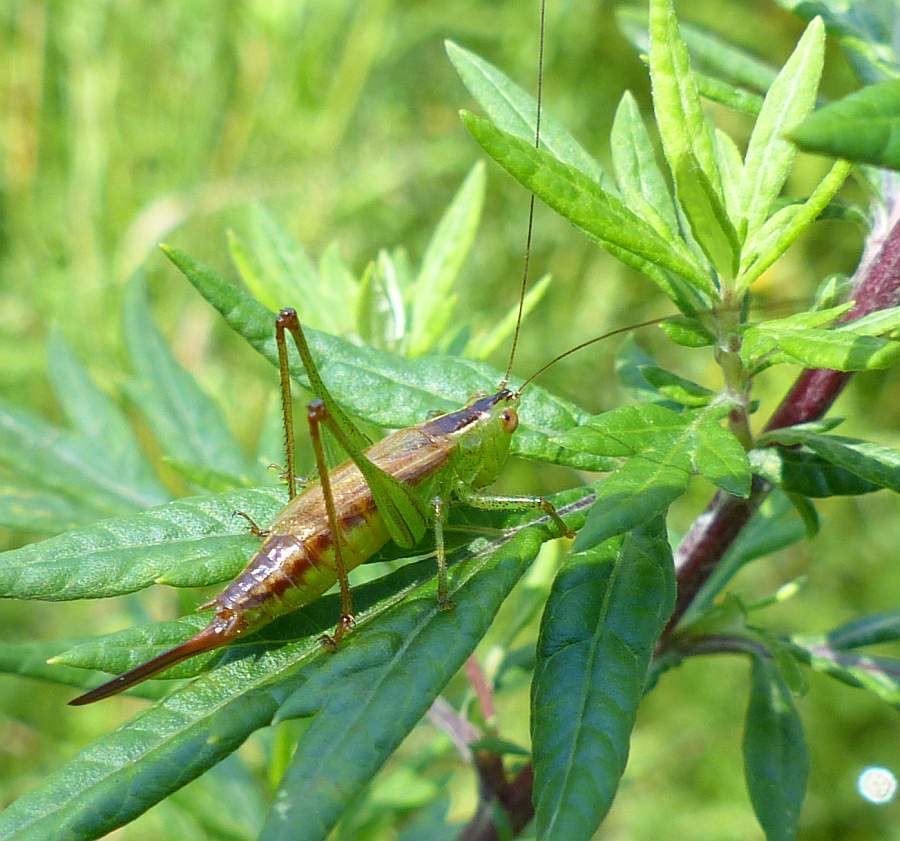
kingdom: Animalia
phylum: Arthropoda
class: Insecta
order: Orthoptera
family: Tettigoniidae
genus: Conocephalus
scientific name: Conocephalus brevipennis
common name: Short-winged meadow katydid
